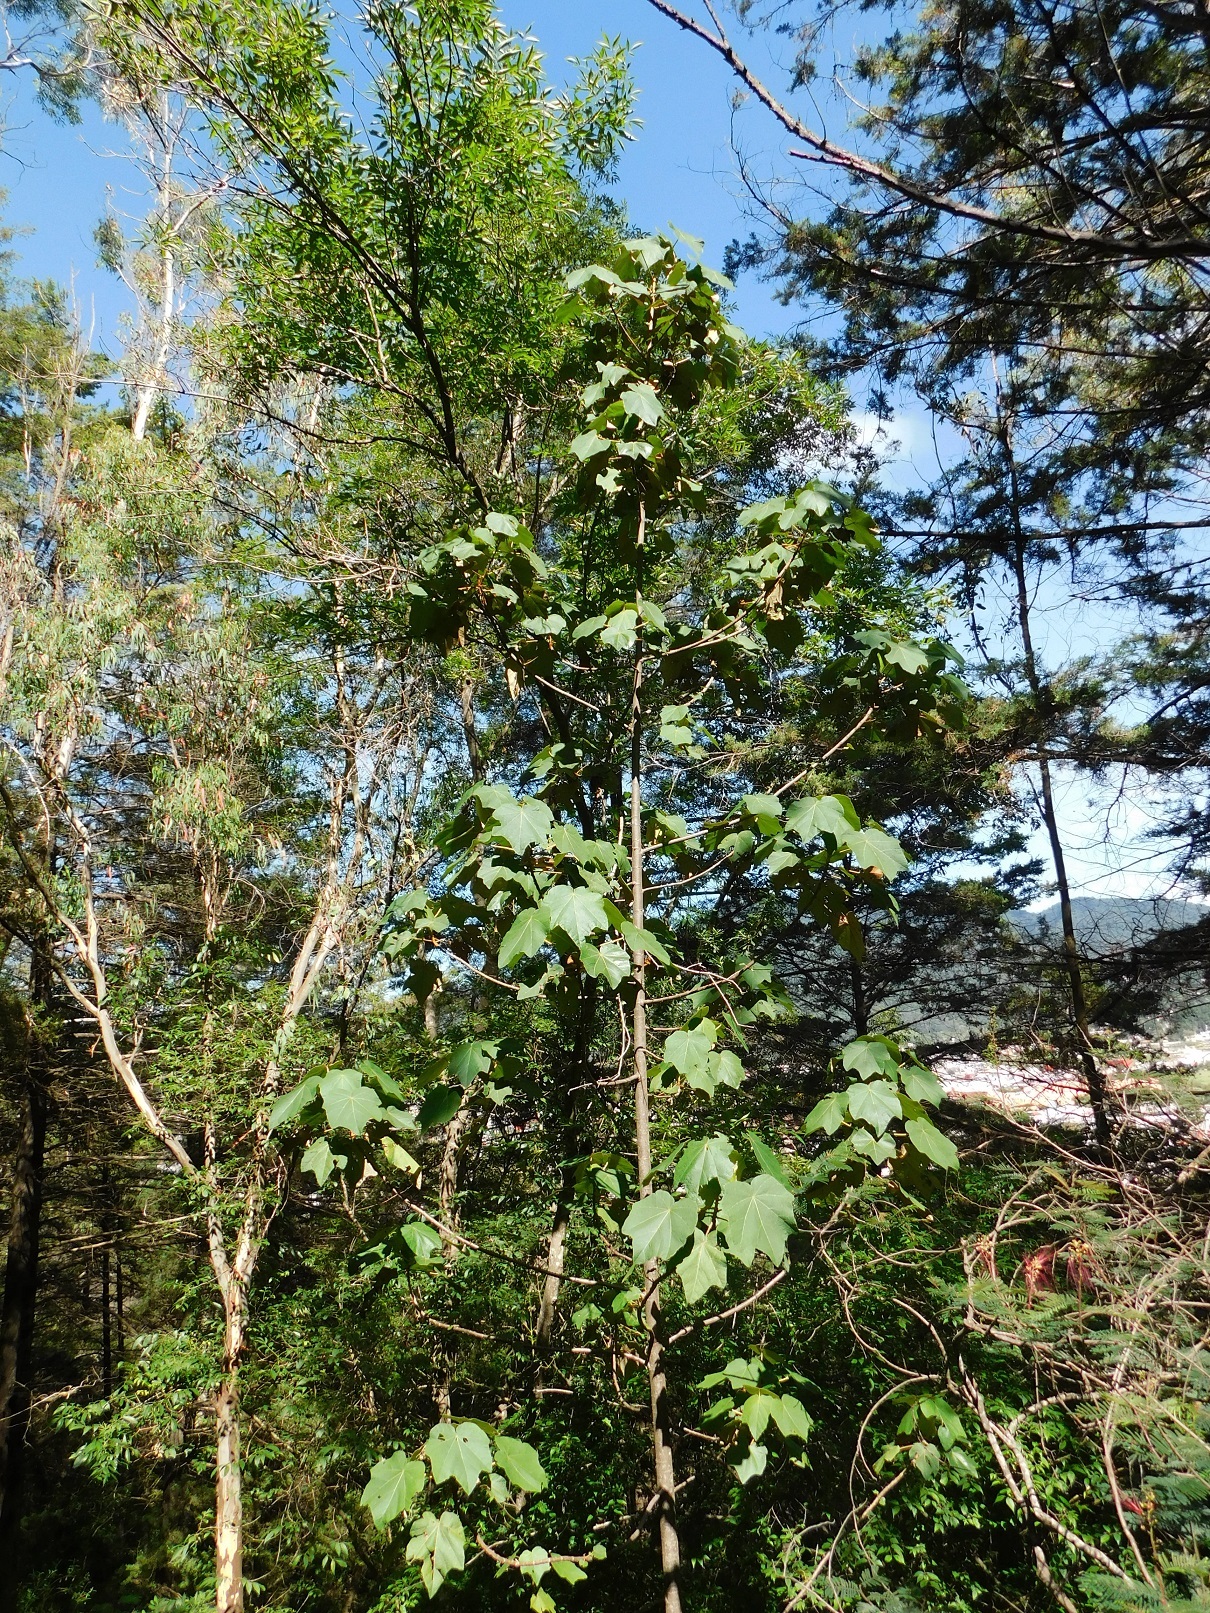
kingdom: Plantae
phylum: Tracheophyta
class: Magnoliopsida
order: Malvales
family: Malvaceae
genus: Chiranthodendron
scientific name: Chiranthodendron pentadactylon
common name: Mexican-hat-plant
